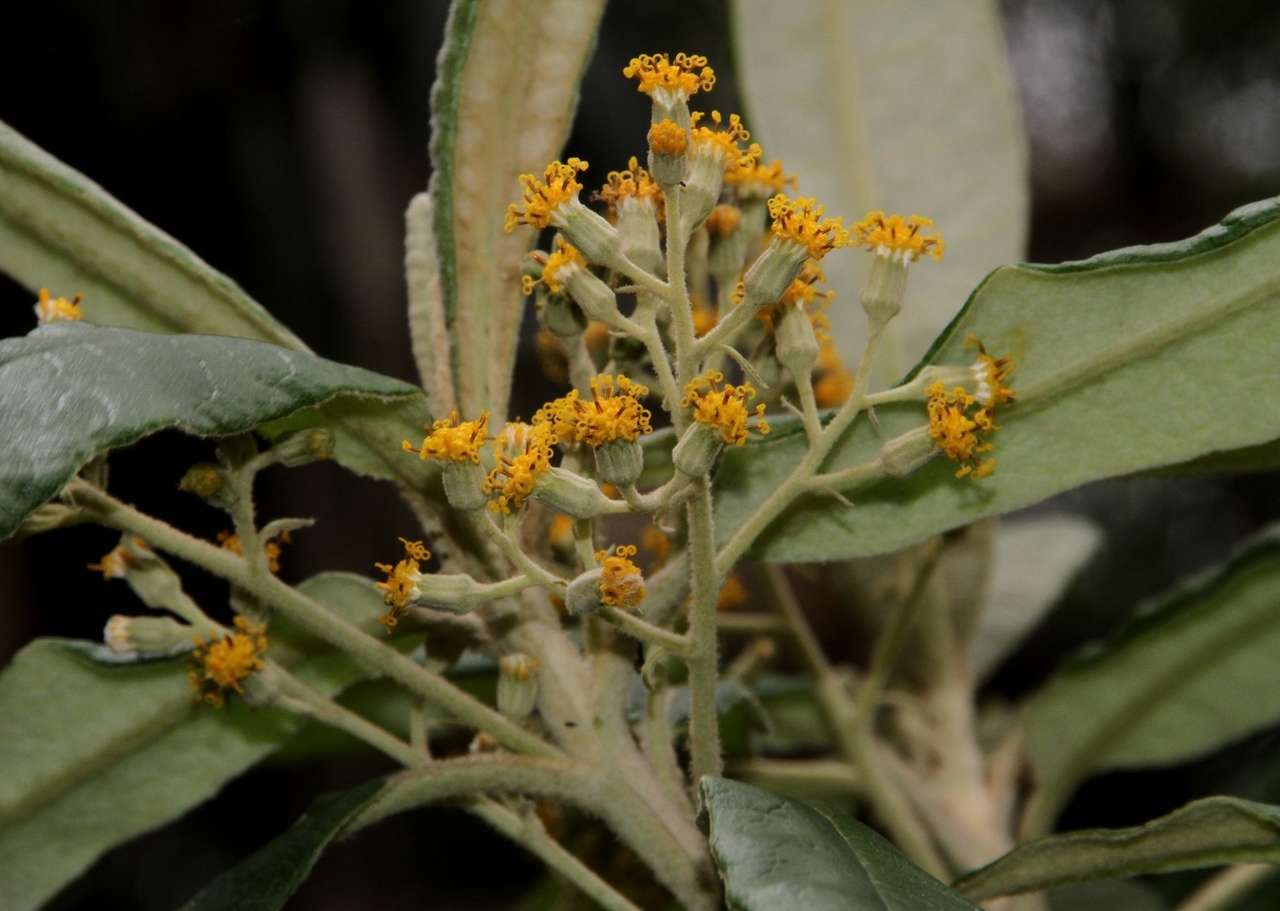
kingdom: Plantae
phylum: Tracheophyta
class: Magnoliopsida
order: Asterales
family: Asteraceae
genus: Bedfordia
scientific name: Bedfordia arborescens
